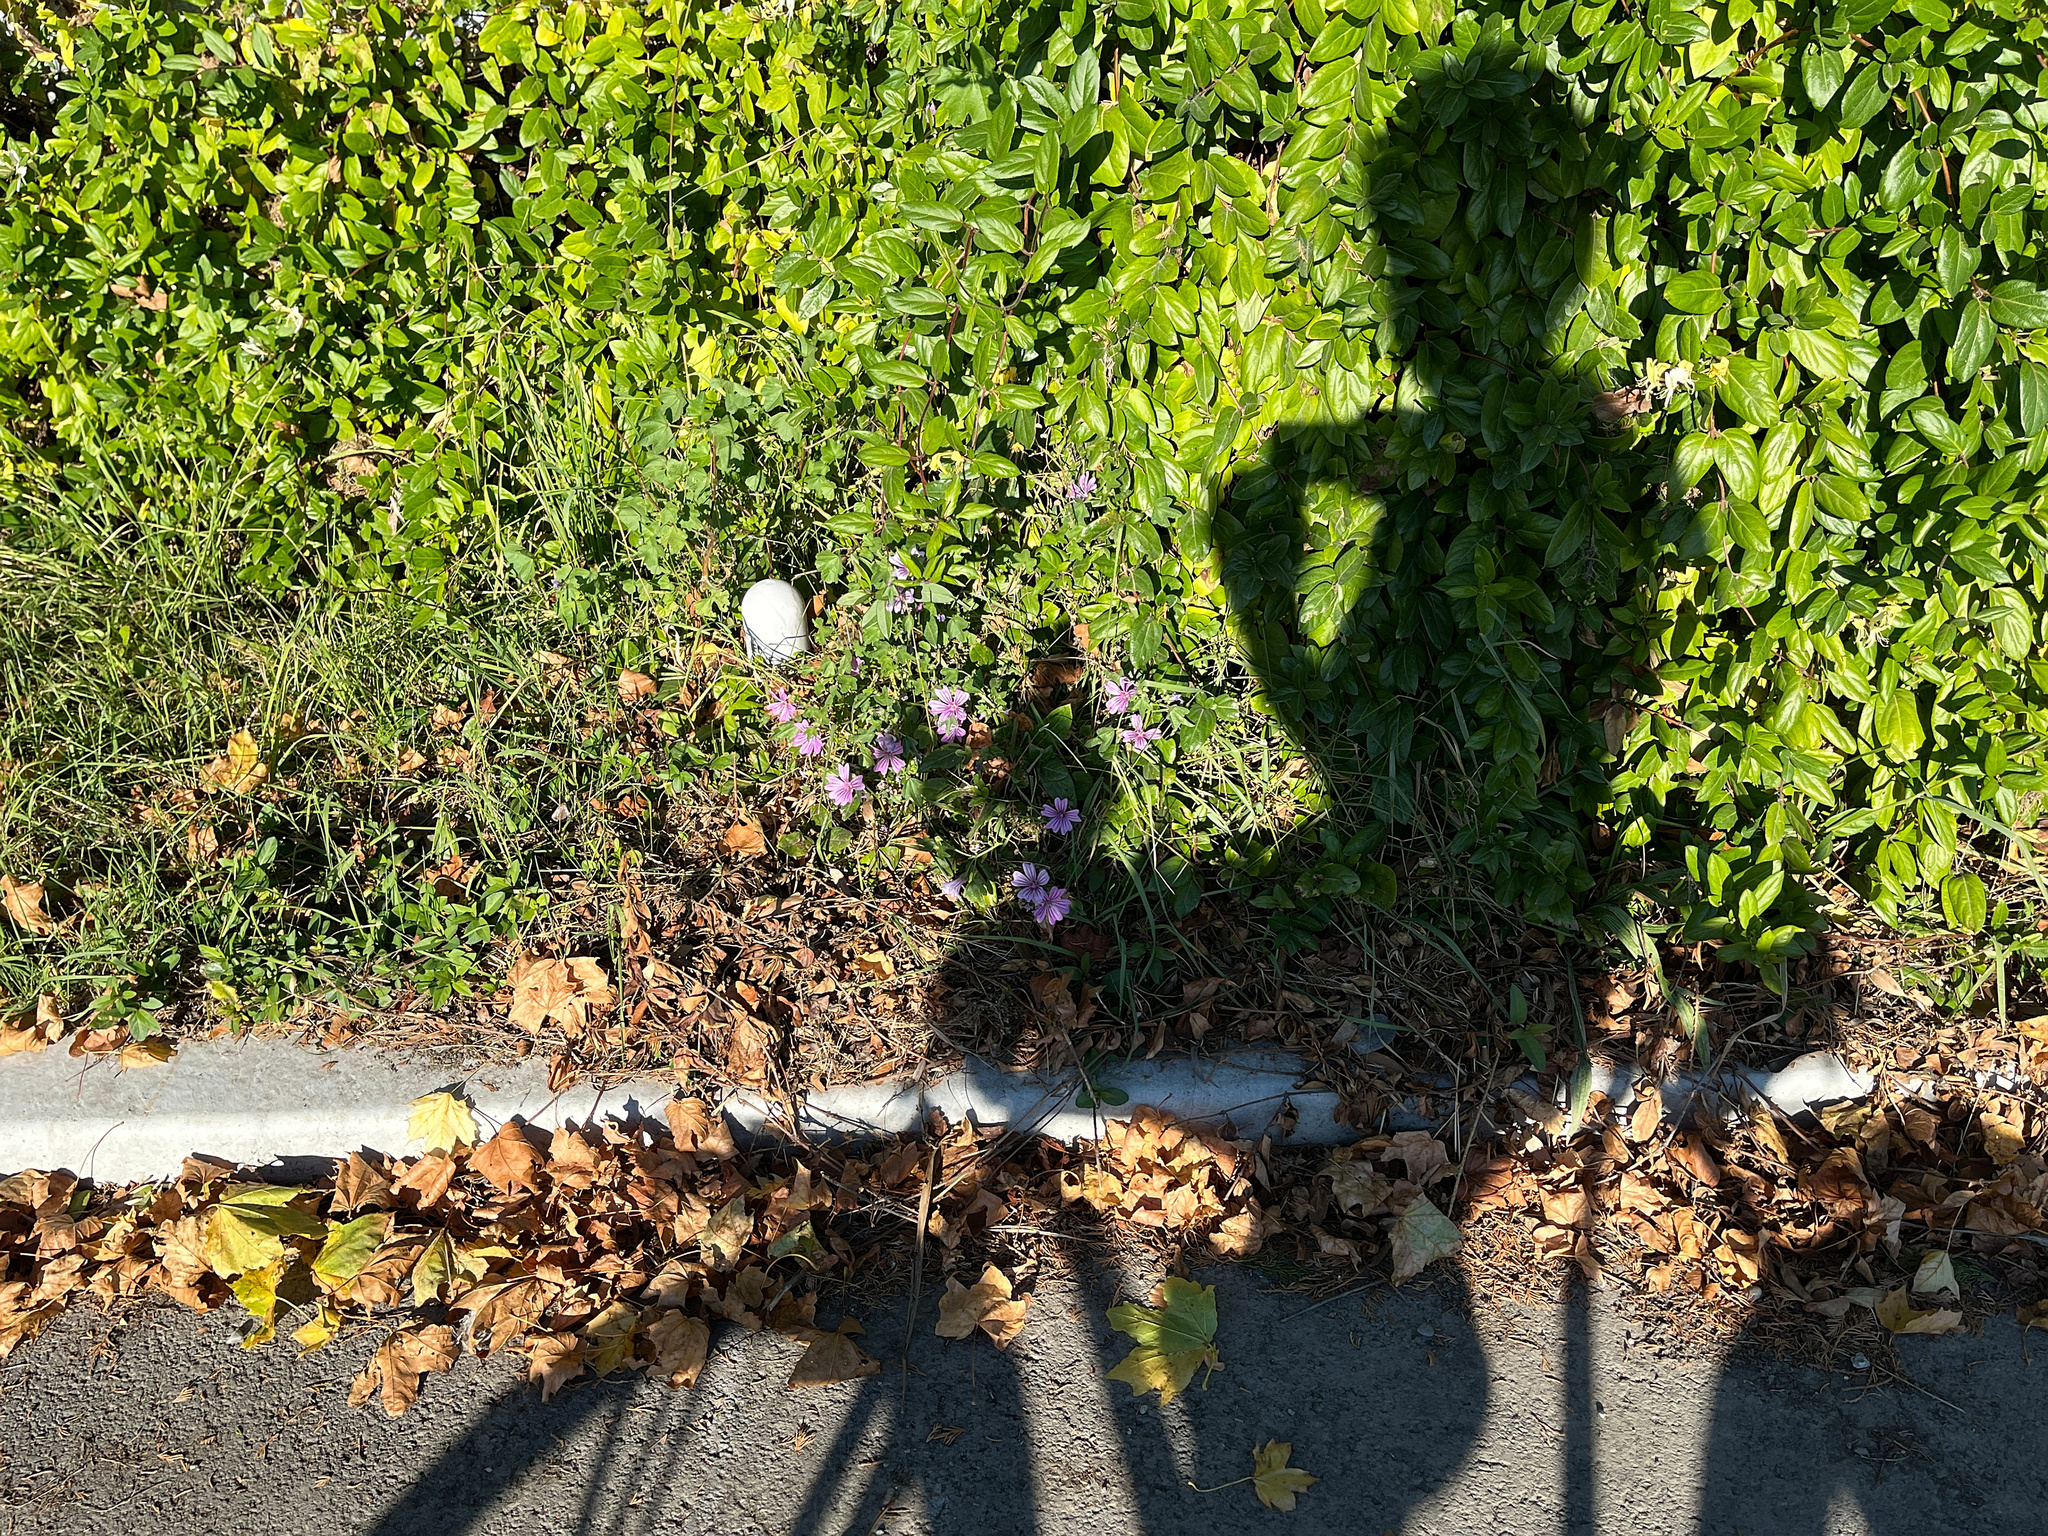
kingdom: Plantae
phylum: Tracheophyta
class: Magnoliopsida
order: Malvales
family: Malvaceae
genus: Malva
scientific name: Malva sylvestris
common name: Common mallow
